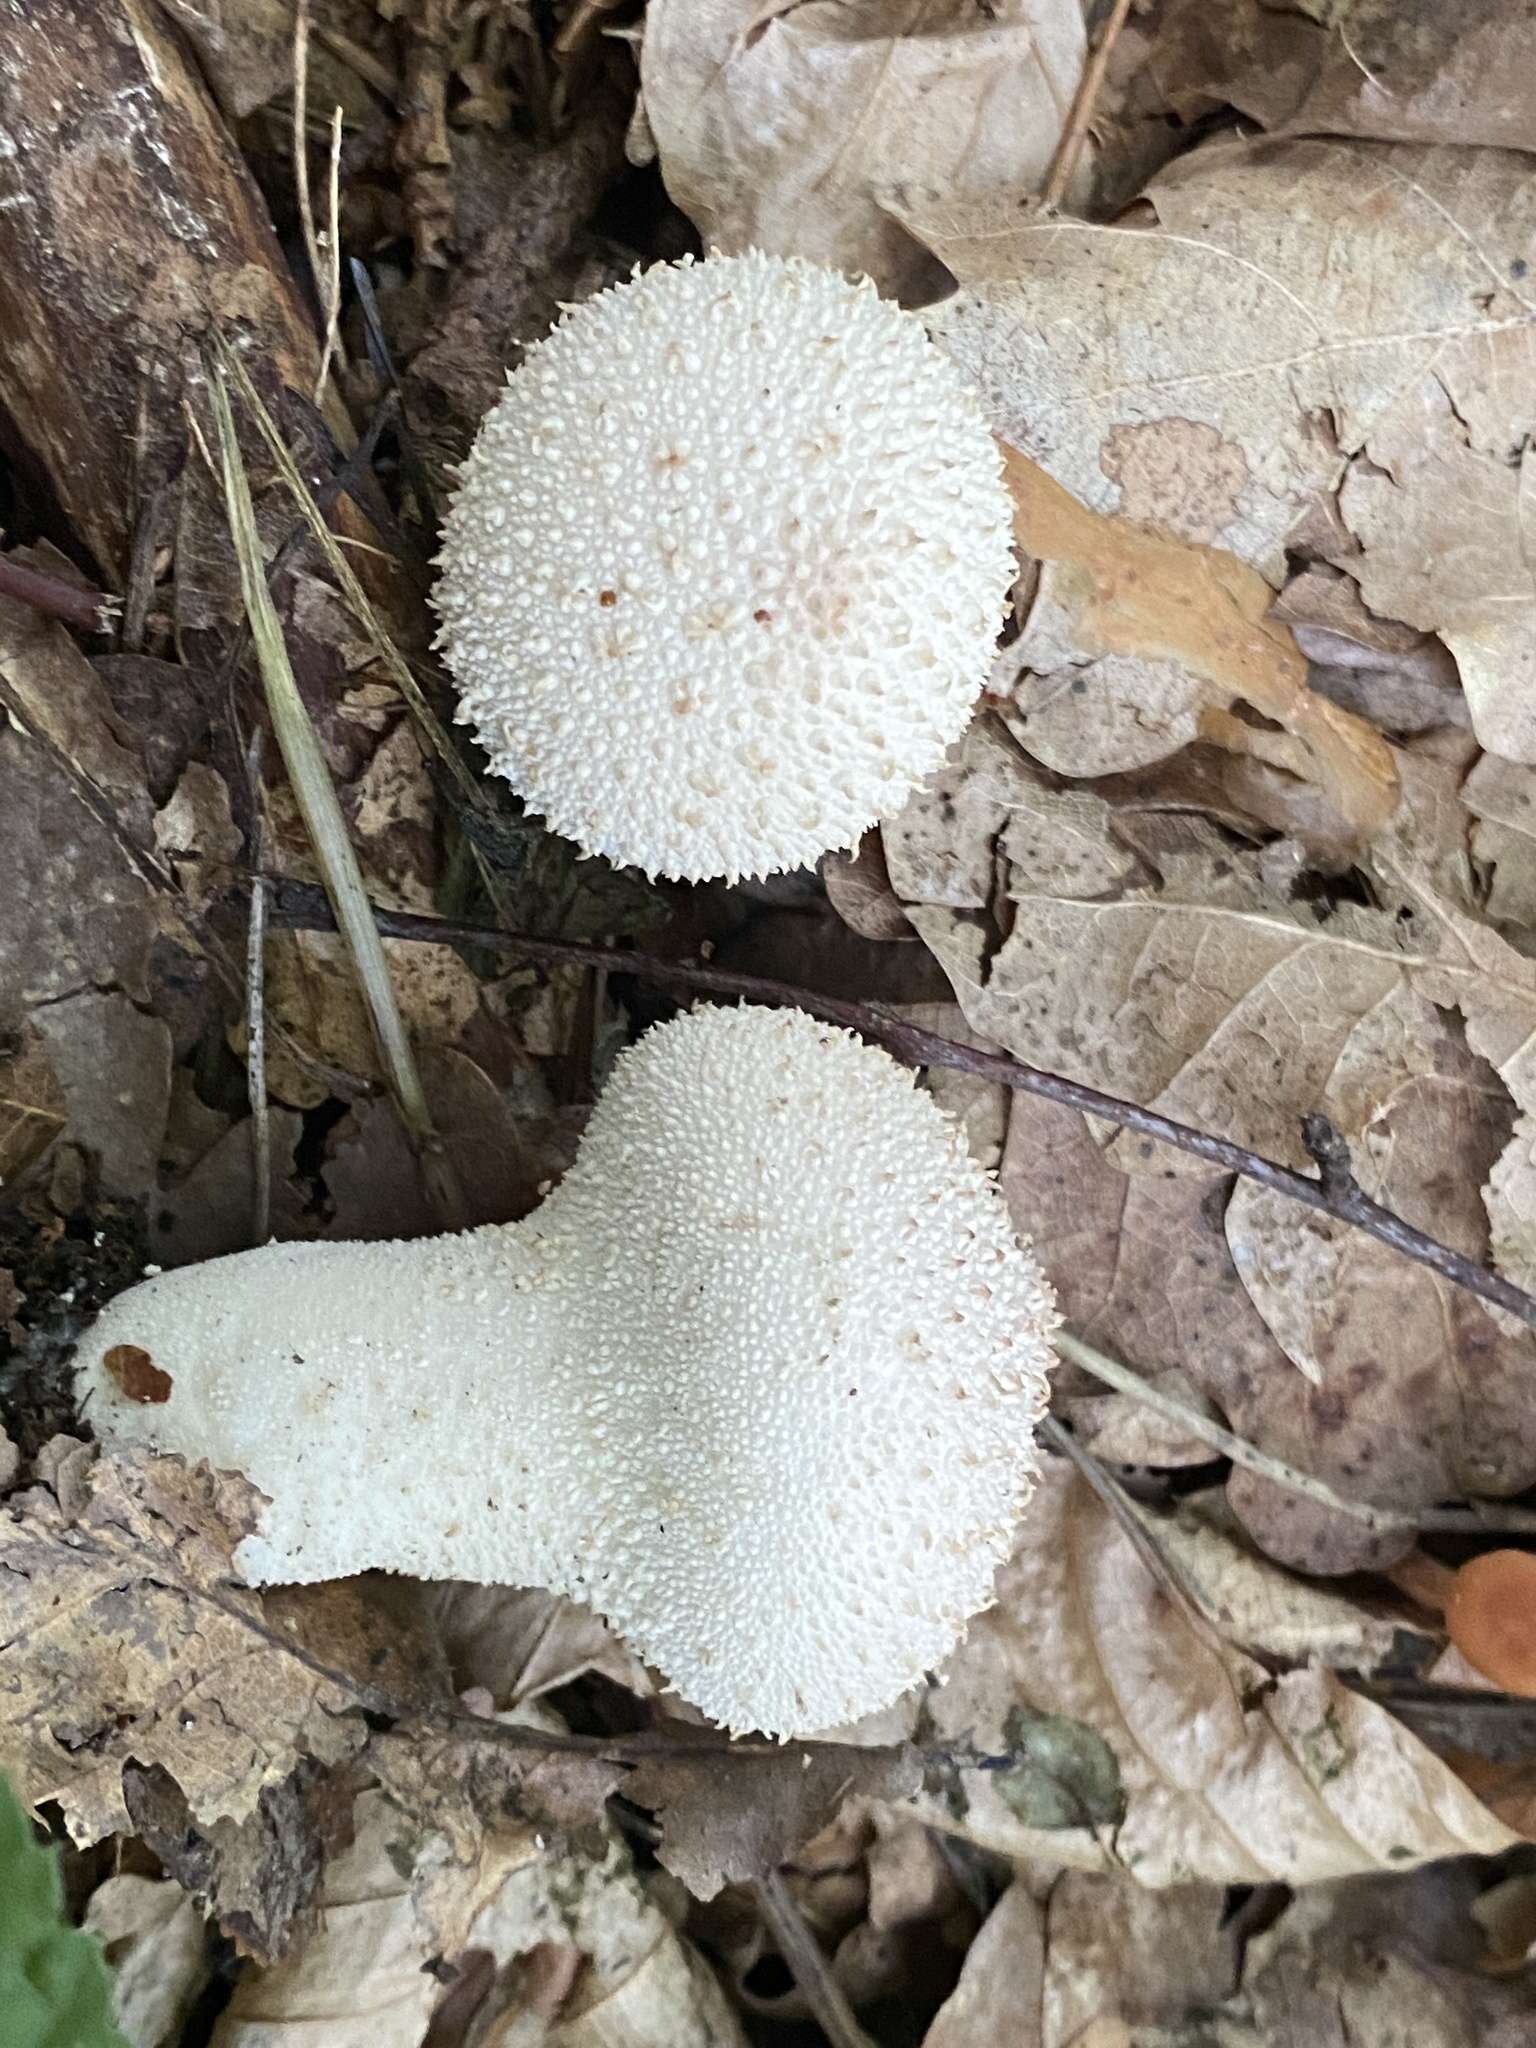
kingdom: Fungi
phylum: Basidiomycota
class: Agaricomycetes
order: Agaricales
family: Lycoperdaceae
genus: Lycoperdon
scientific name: Lycoperdon perlatum
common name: Common puffball
